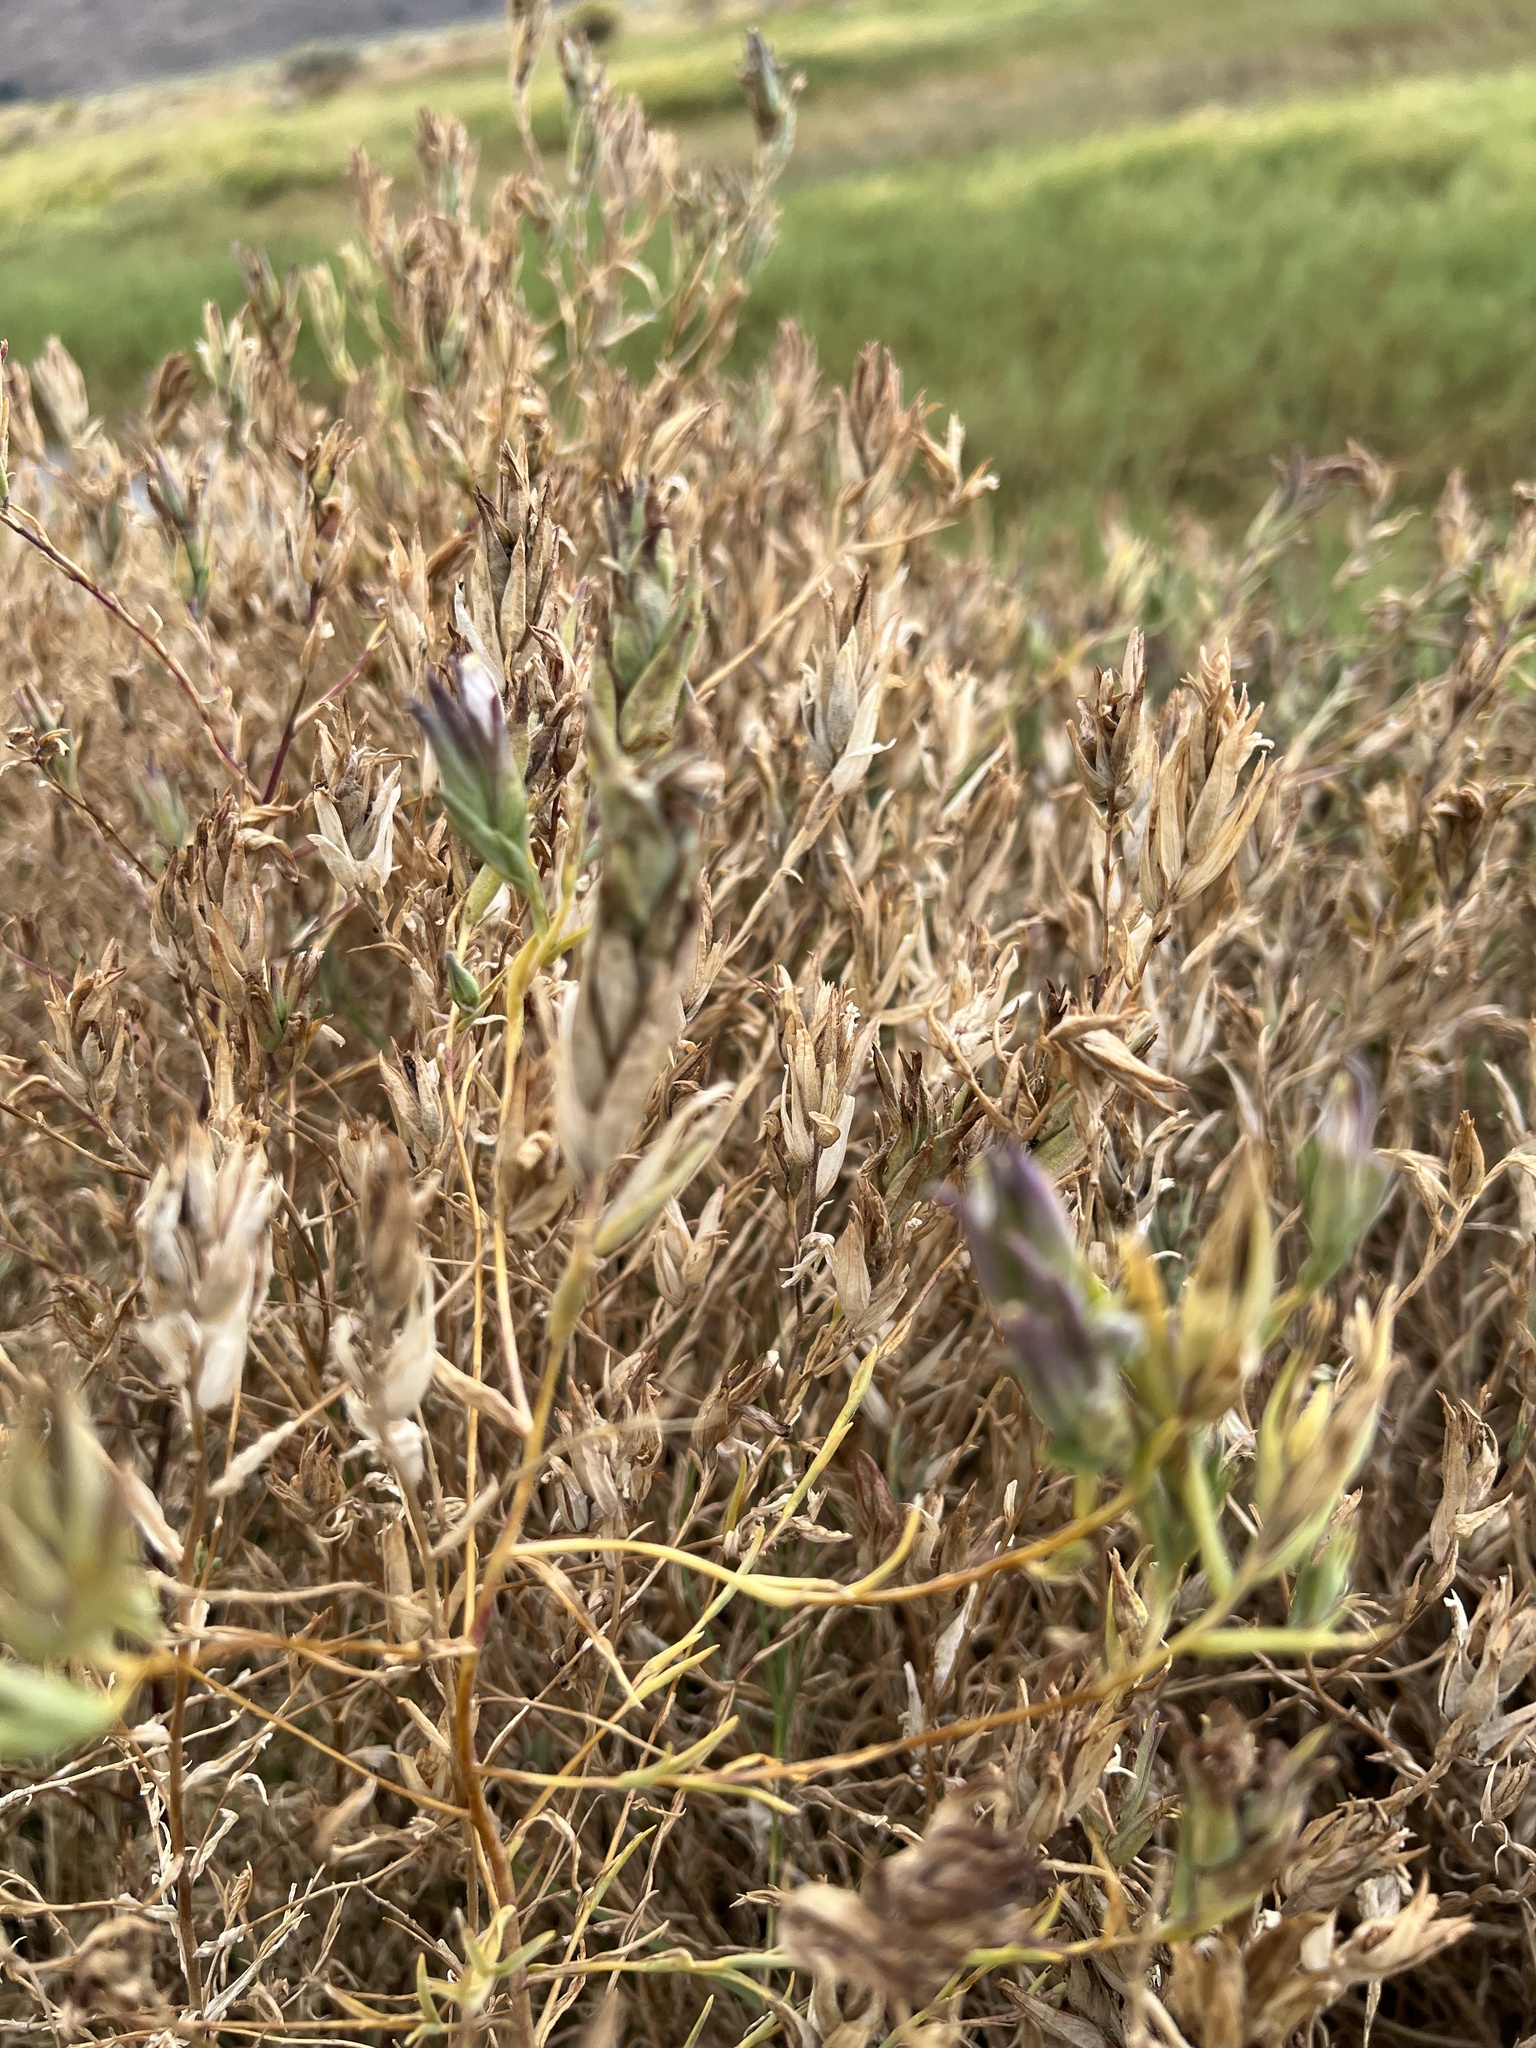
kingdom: Plantae
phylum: Tracheophyta
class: Magnoliopsida
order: Lamiales
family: Orobanchaceae
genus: Chloropyron
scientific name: Chloropyron maritimum
